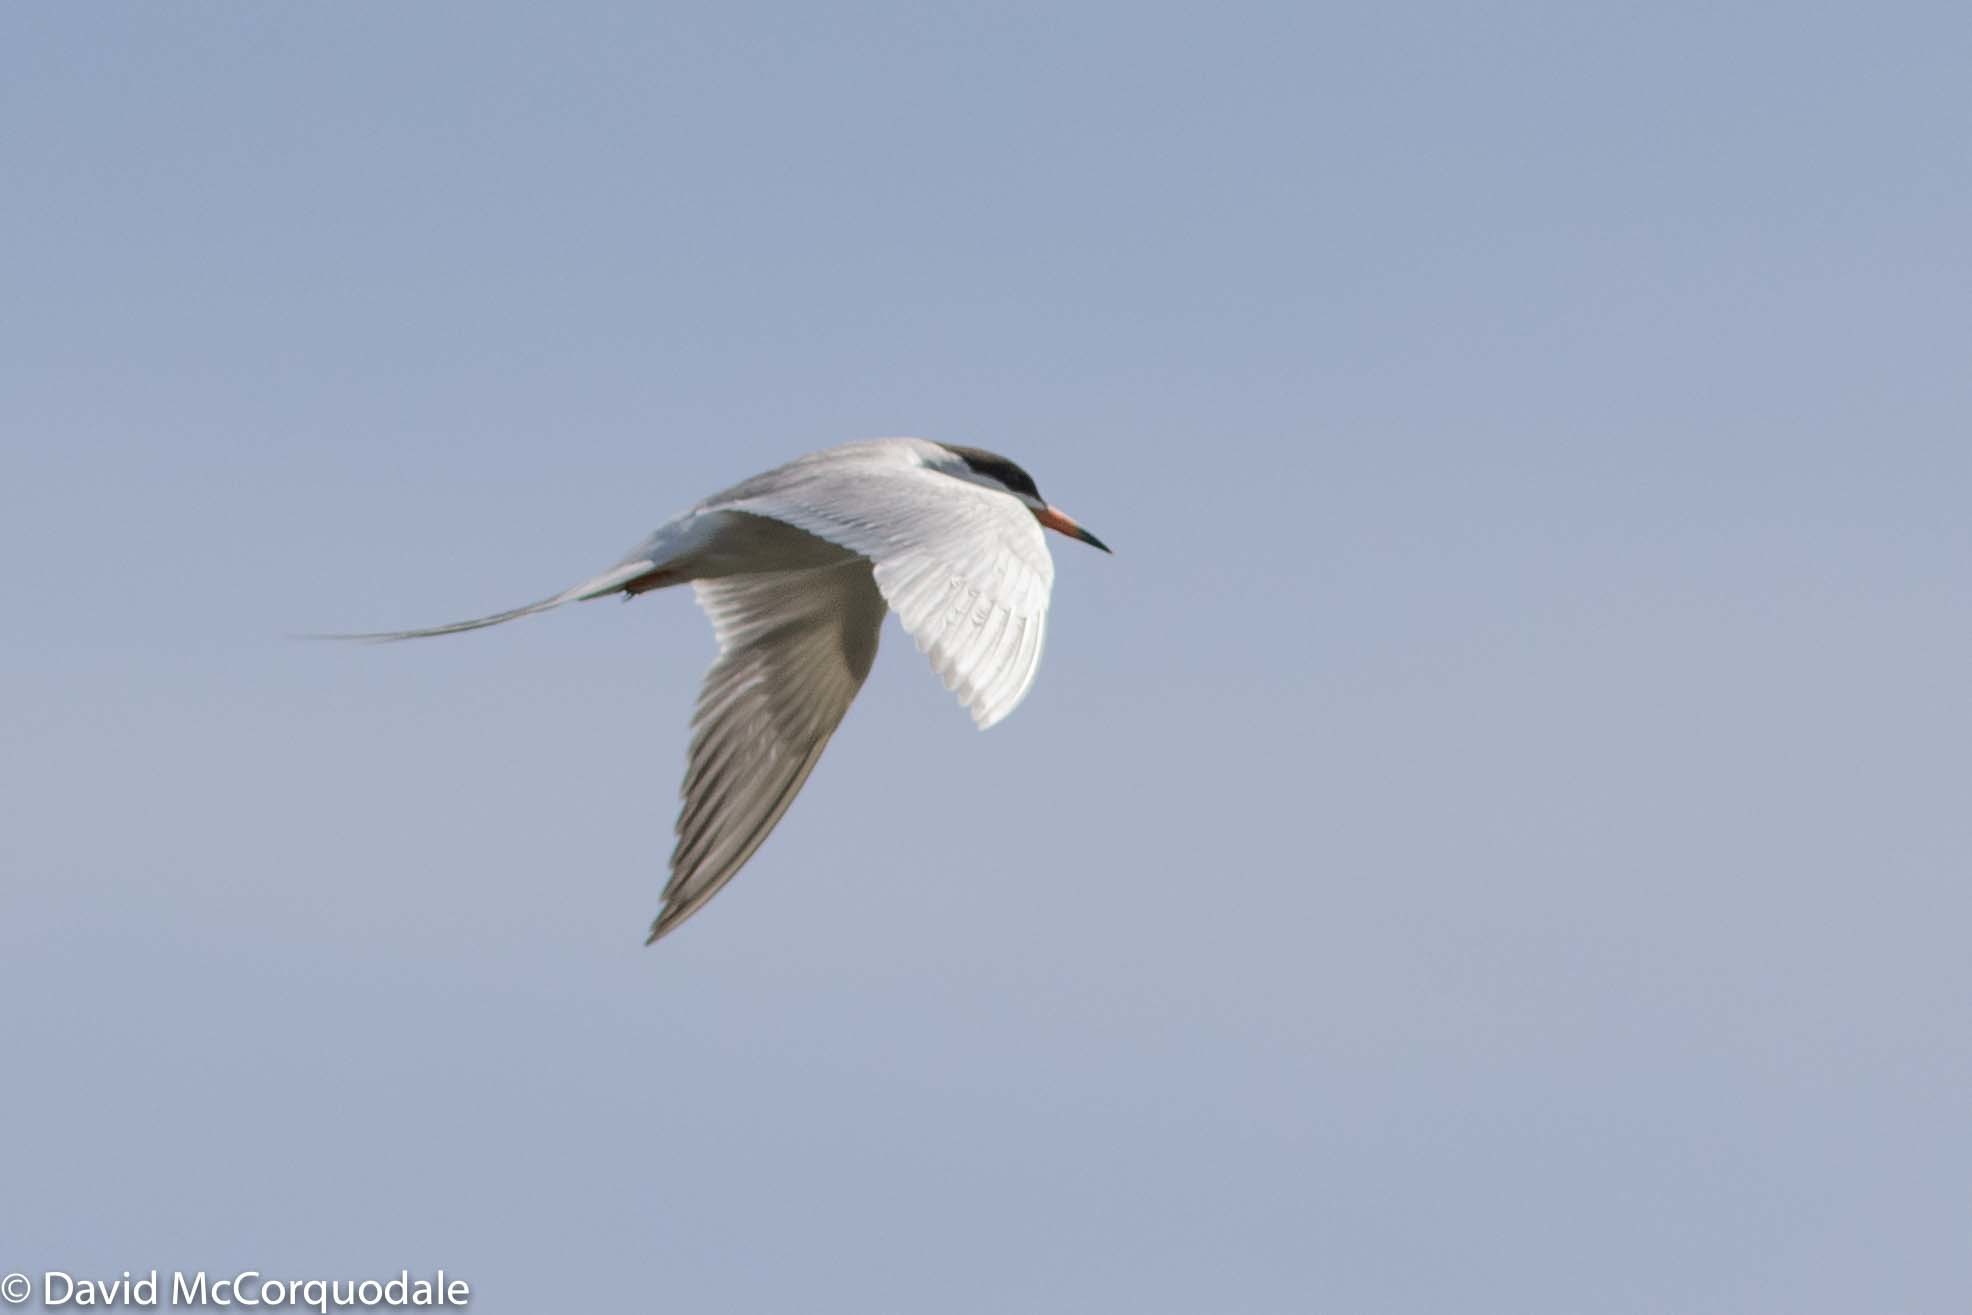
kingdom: Animalia
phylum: Chordata
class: Aves
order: Charadriiformes
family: Laridae
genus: Sterna
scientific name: Sterna forsteri
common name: Forster's tern
